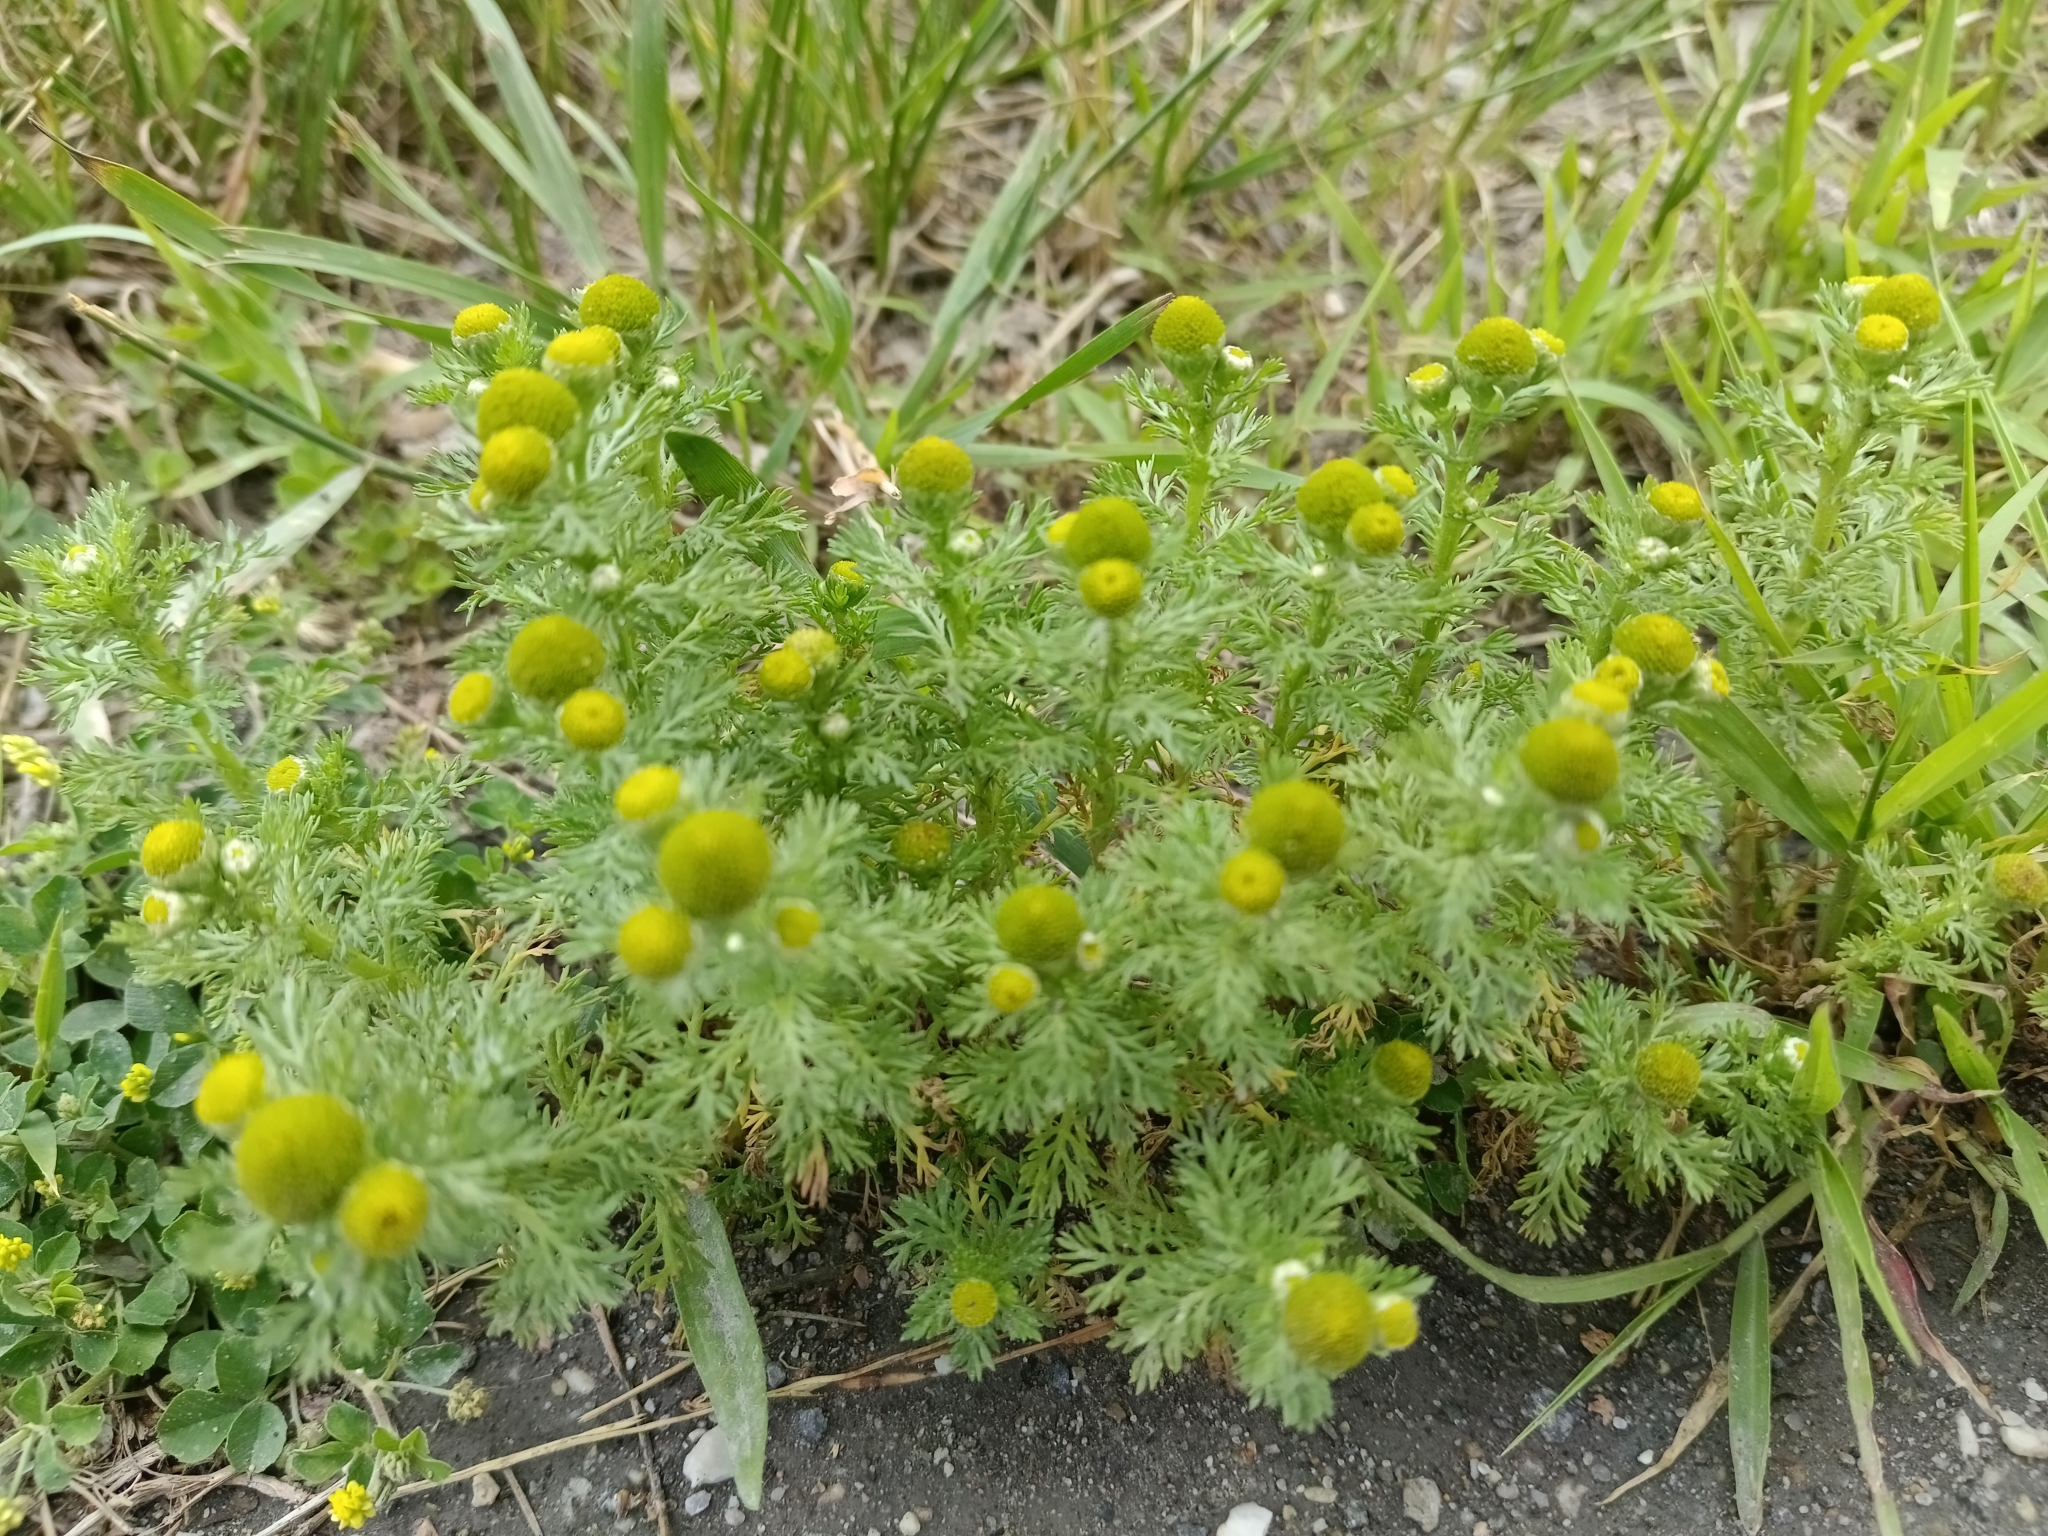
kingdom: Plantae
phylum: Tracheophyta
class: Magnoliopsida
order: Asterales
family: Asteraceae
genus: Matricaria
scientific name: Matricaria discoidea
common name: Disc mayweed
